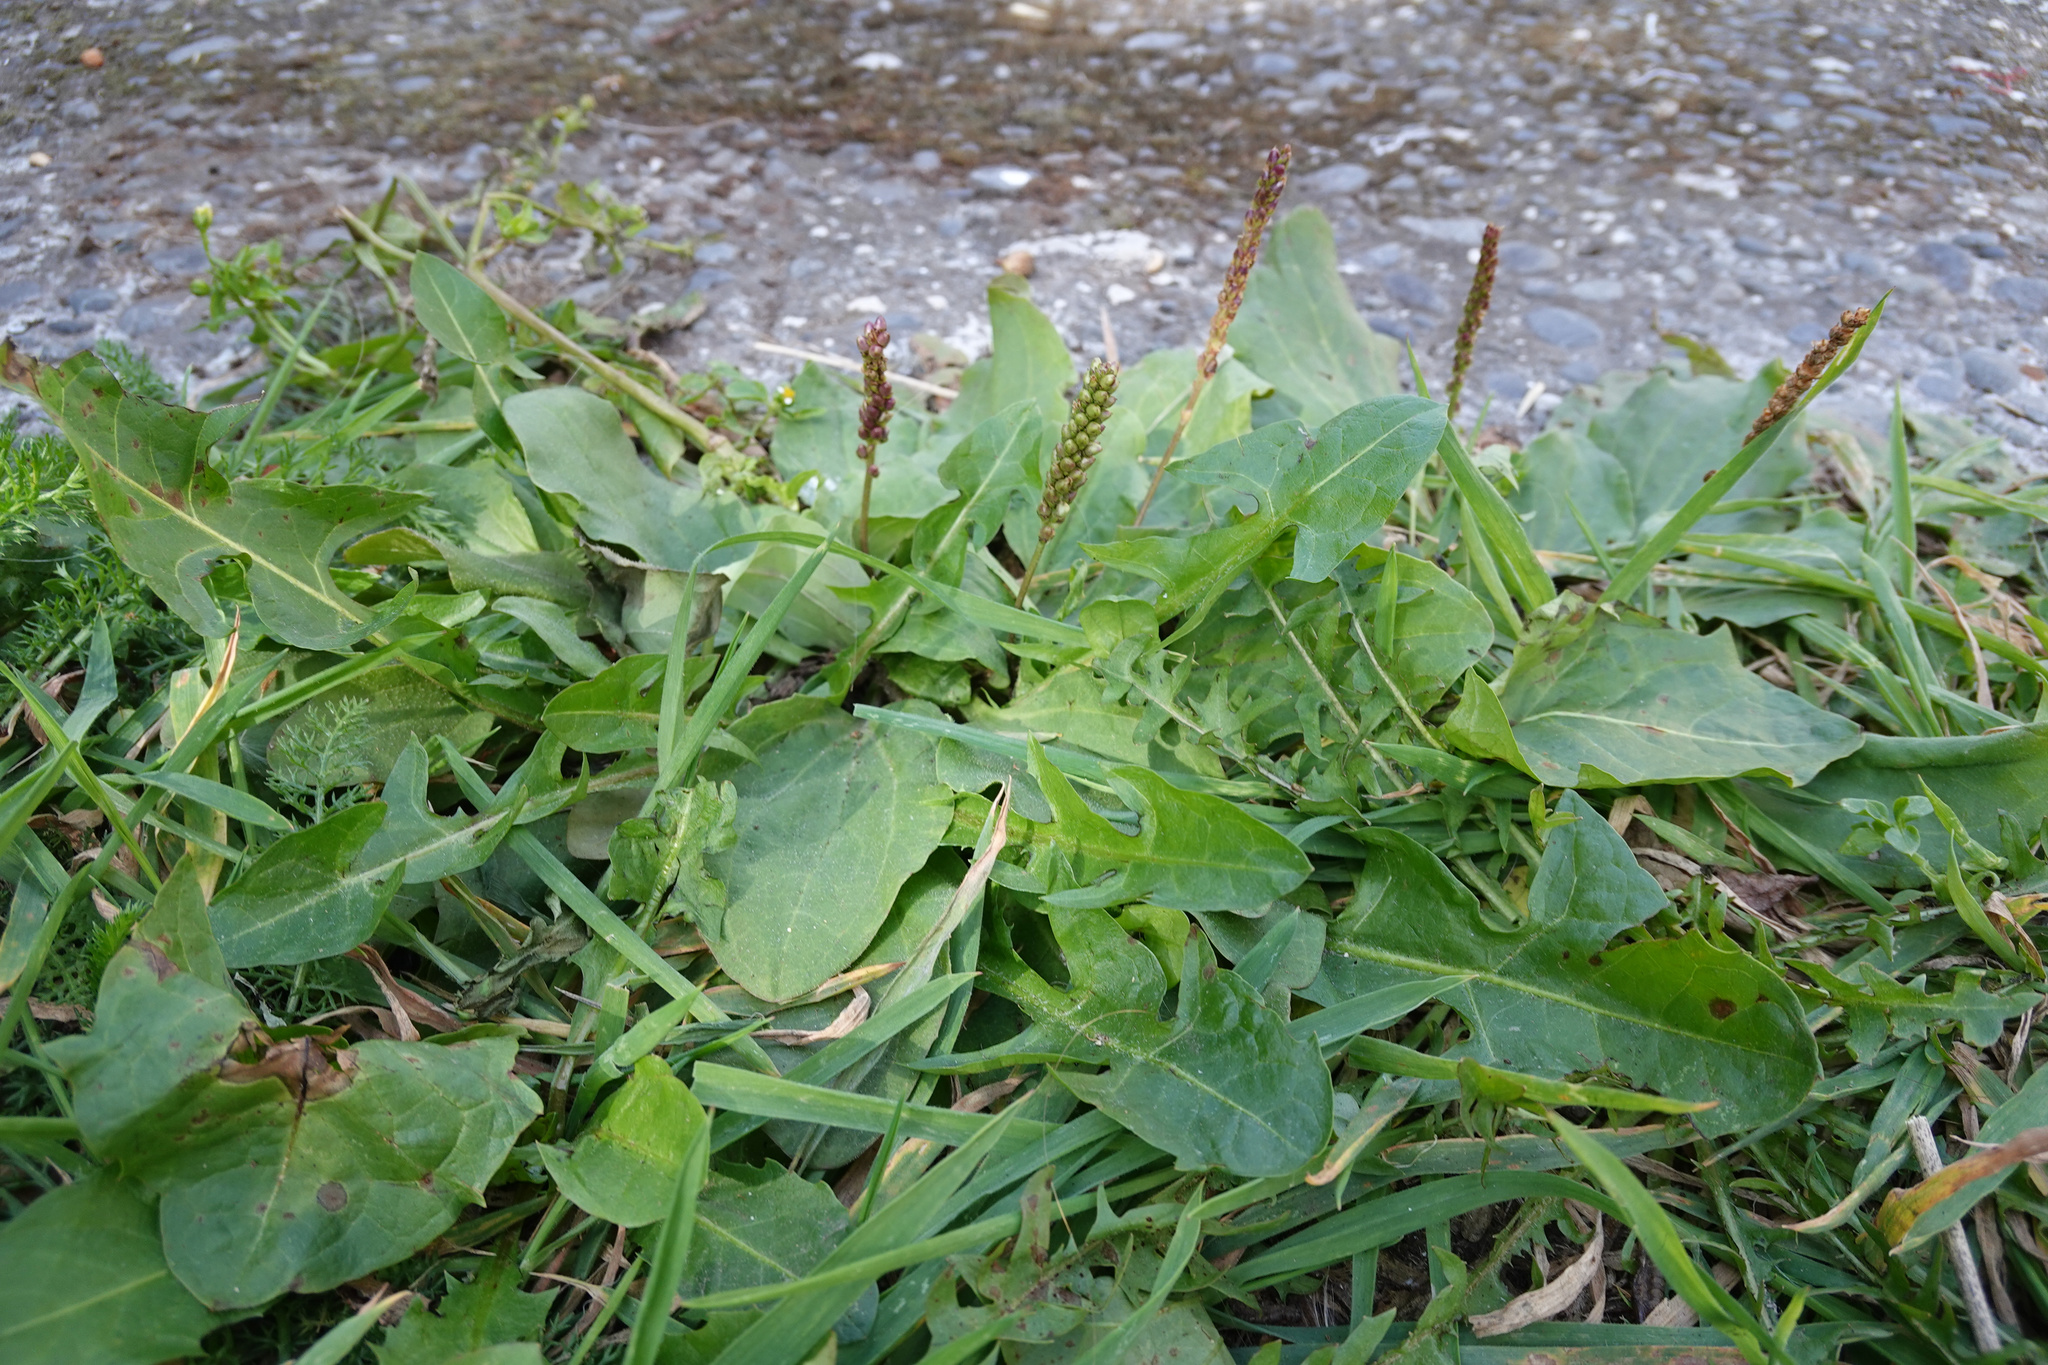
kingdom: Plantae
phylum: Tracheophyta
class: Magnoliopsida
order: Lamiales
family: Plantaginaceae
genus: Plantago
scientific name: Plantago major
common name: Common plantain
